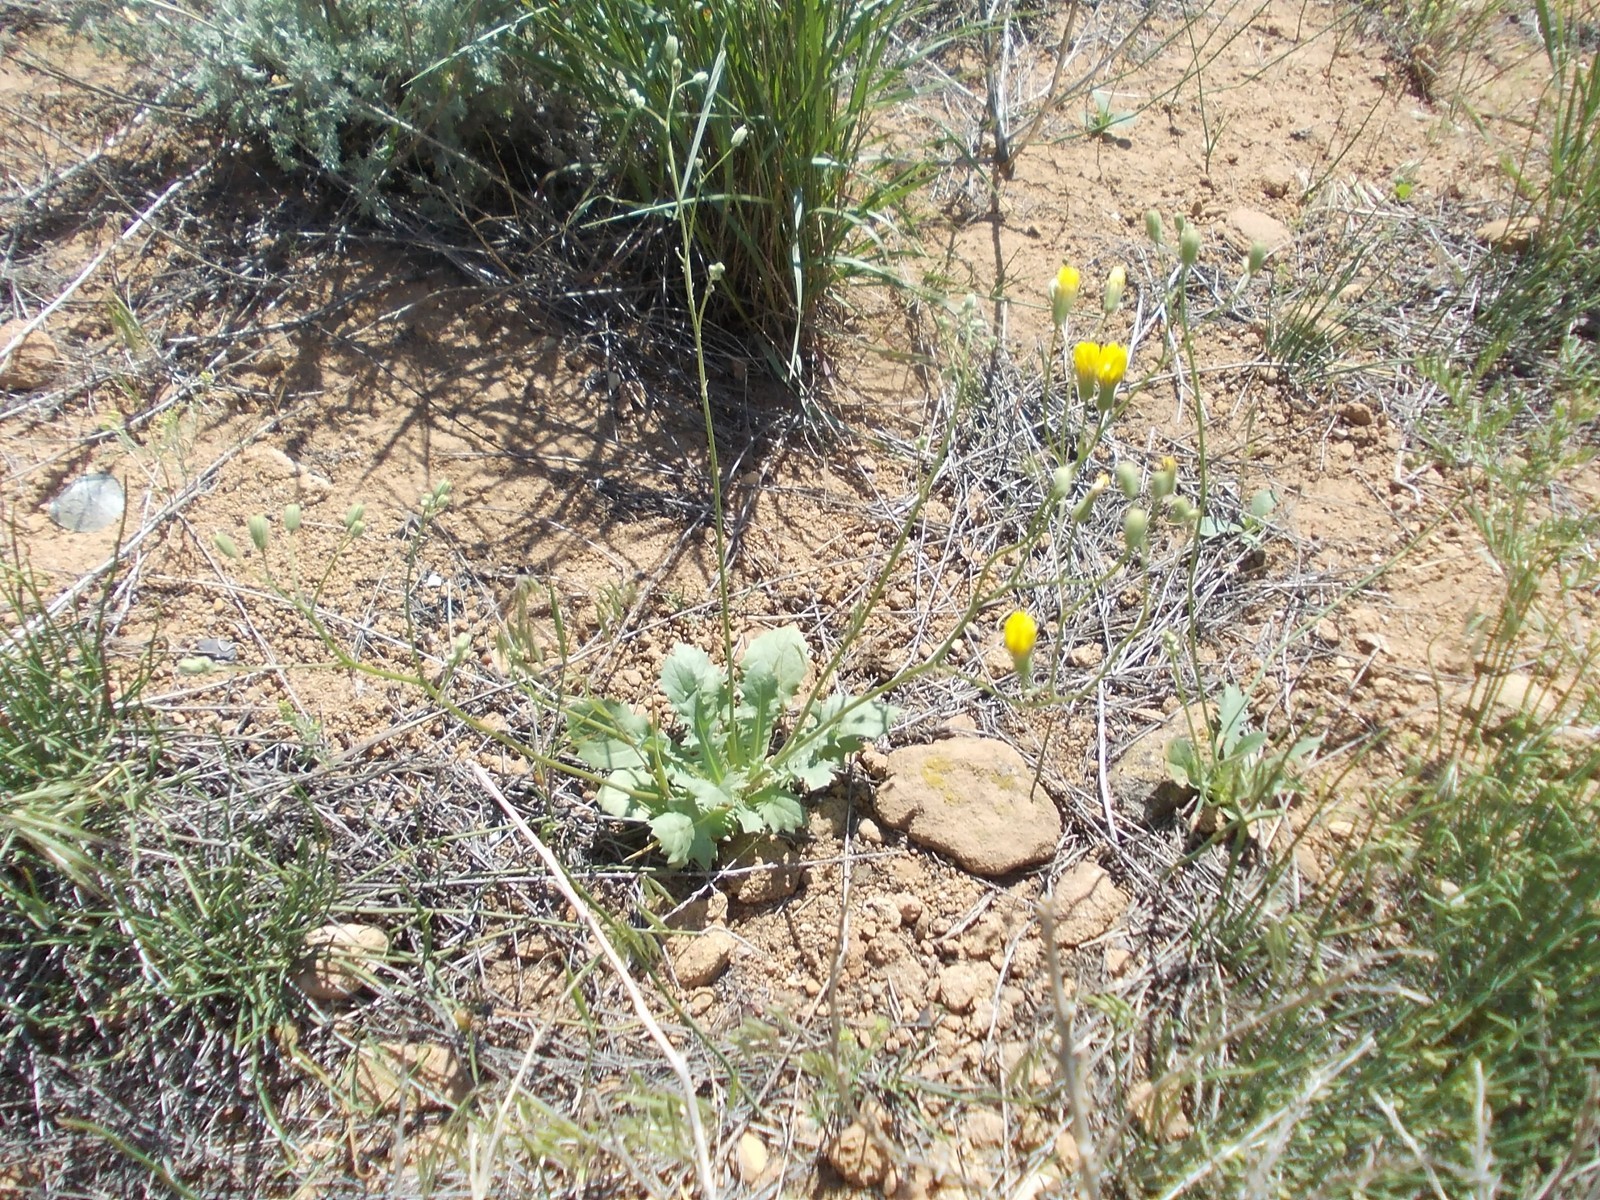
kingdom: Plantae
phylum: Tracheophyta
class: Magnoliopsida
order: Asterales
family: Asteraceae
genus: Crepis
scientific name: Crepis sancta
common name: Hawk's-beard
